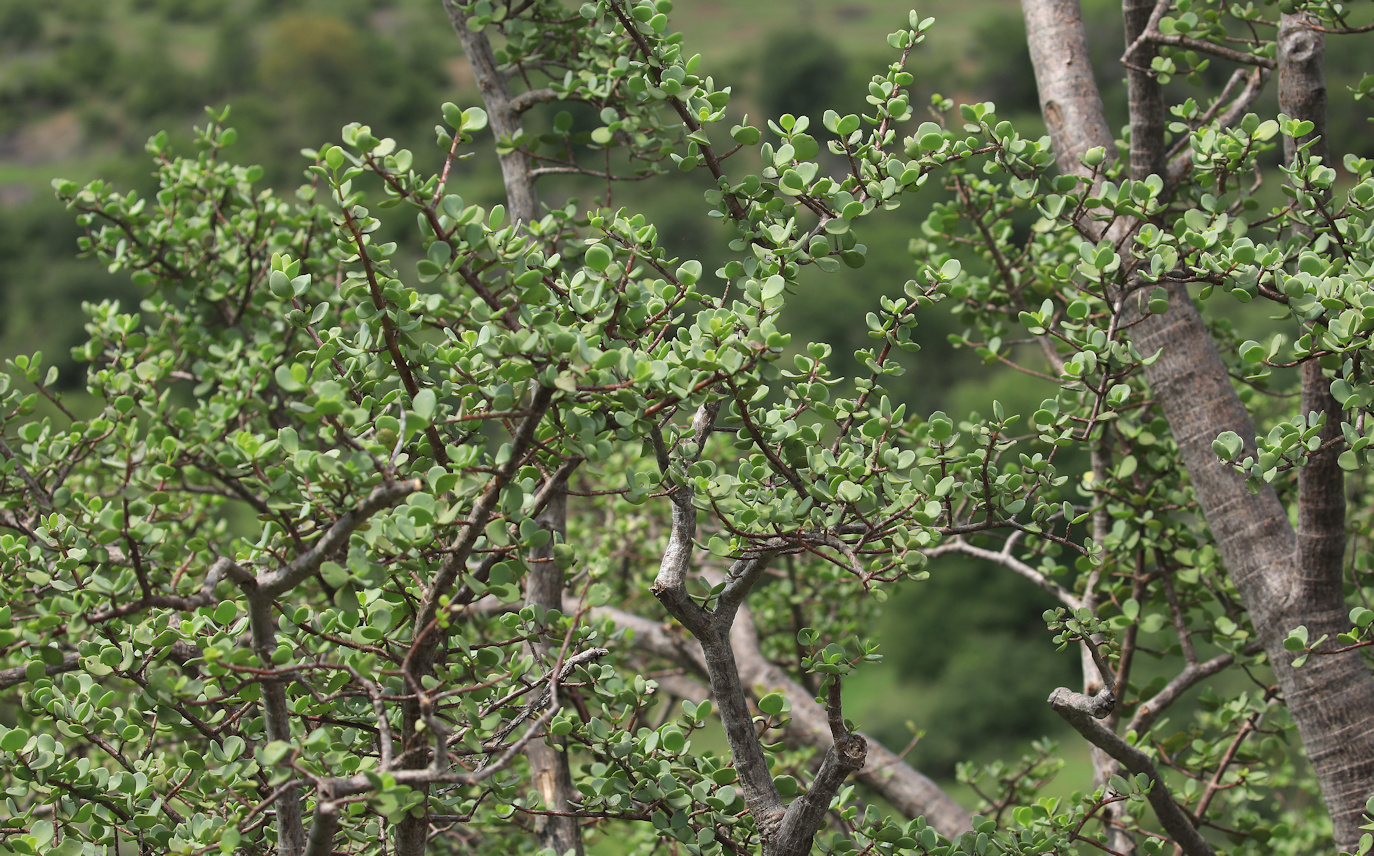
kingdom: Plantae
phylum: Tracheophyta
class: Magnoliopsida
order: Caryophyllales
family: Didiereaceae
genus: Portulacaria
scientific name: Portulacaria afra
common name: Elephant-bush
